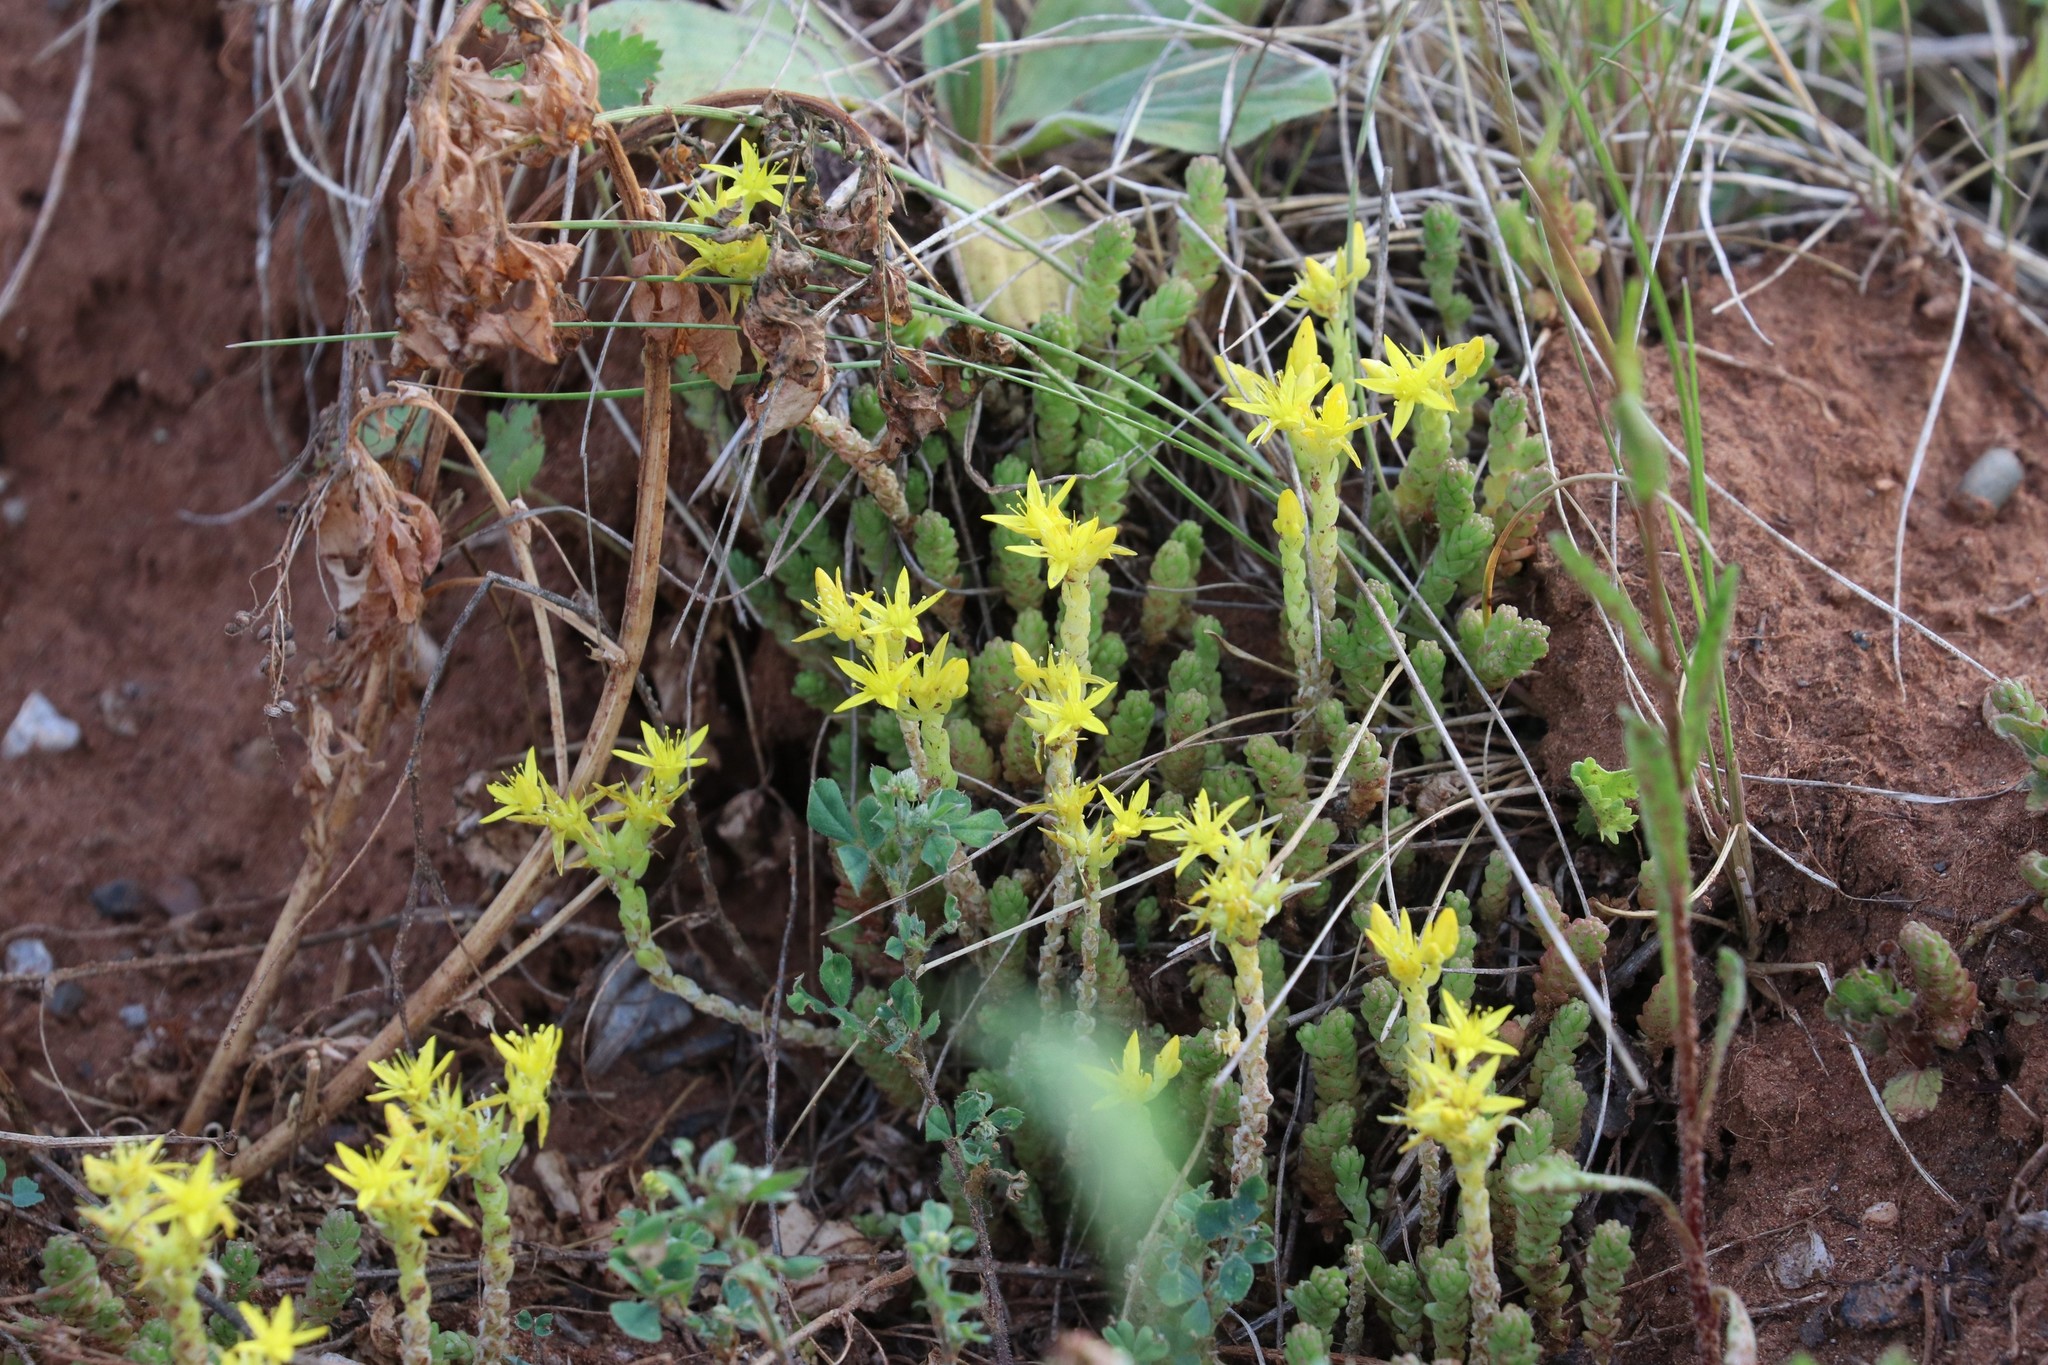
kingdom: Plantae
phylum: Tracheophyta
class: Magnoliopsida
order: Saxifragales
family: Crassulaceae
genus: Sedum
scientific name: Sedum acre
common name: Biting stonecrop
